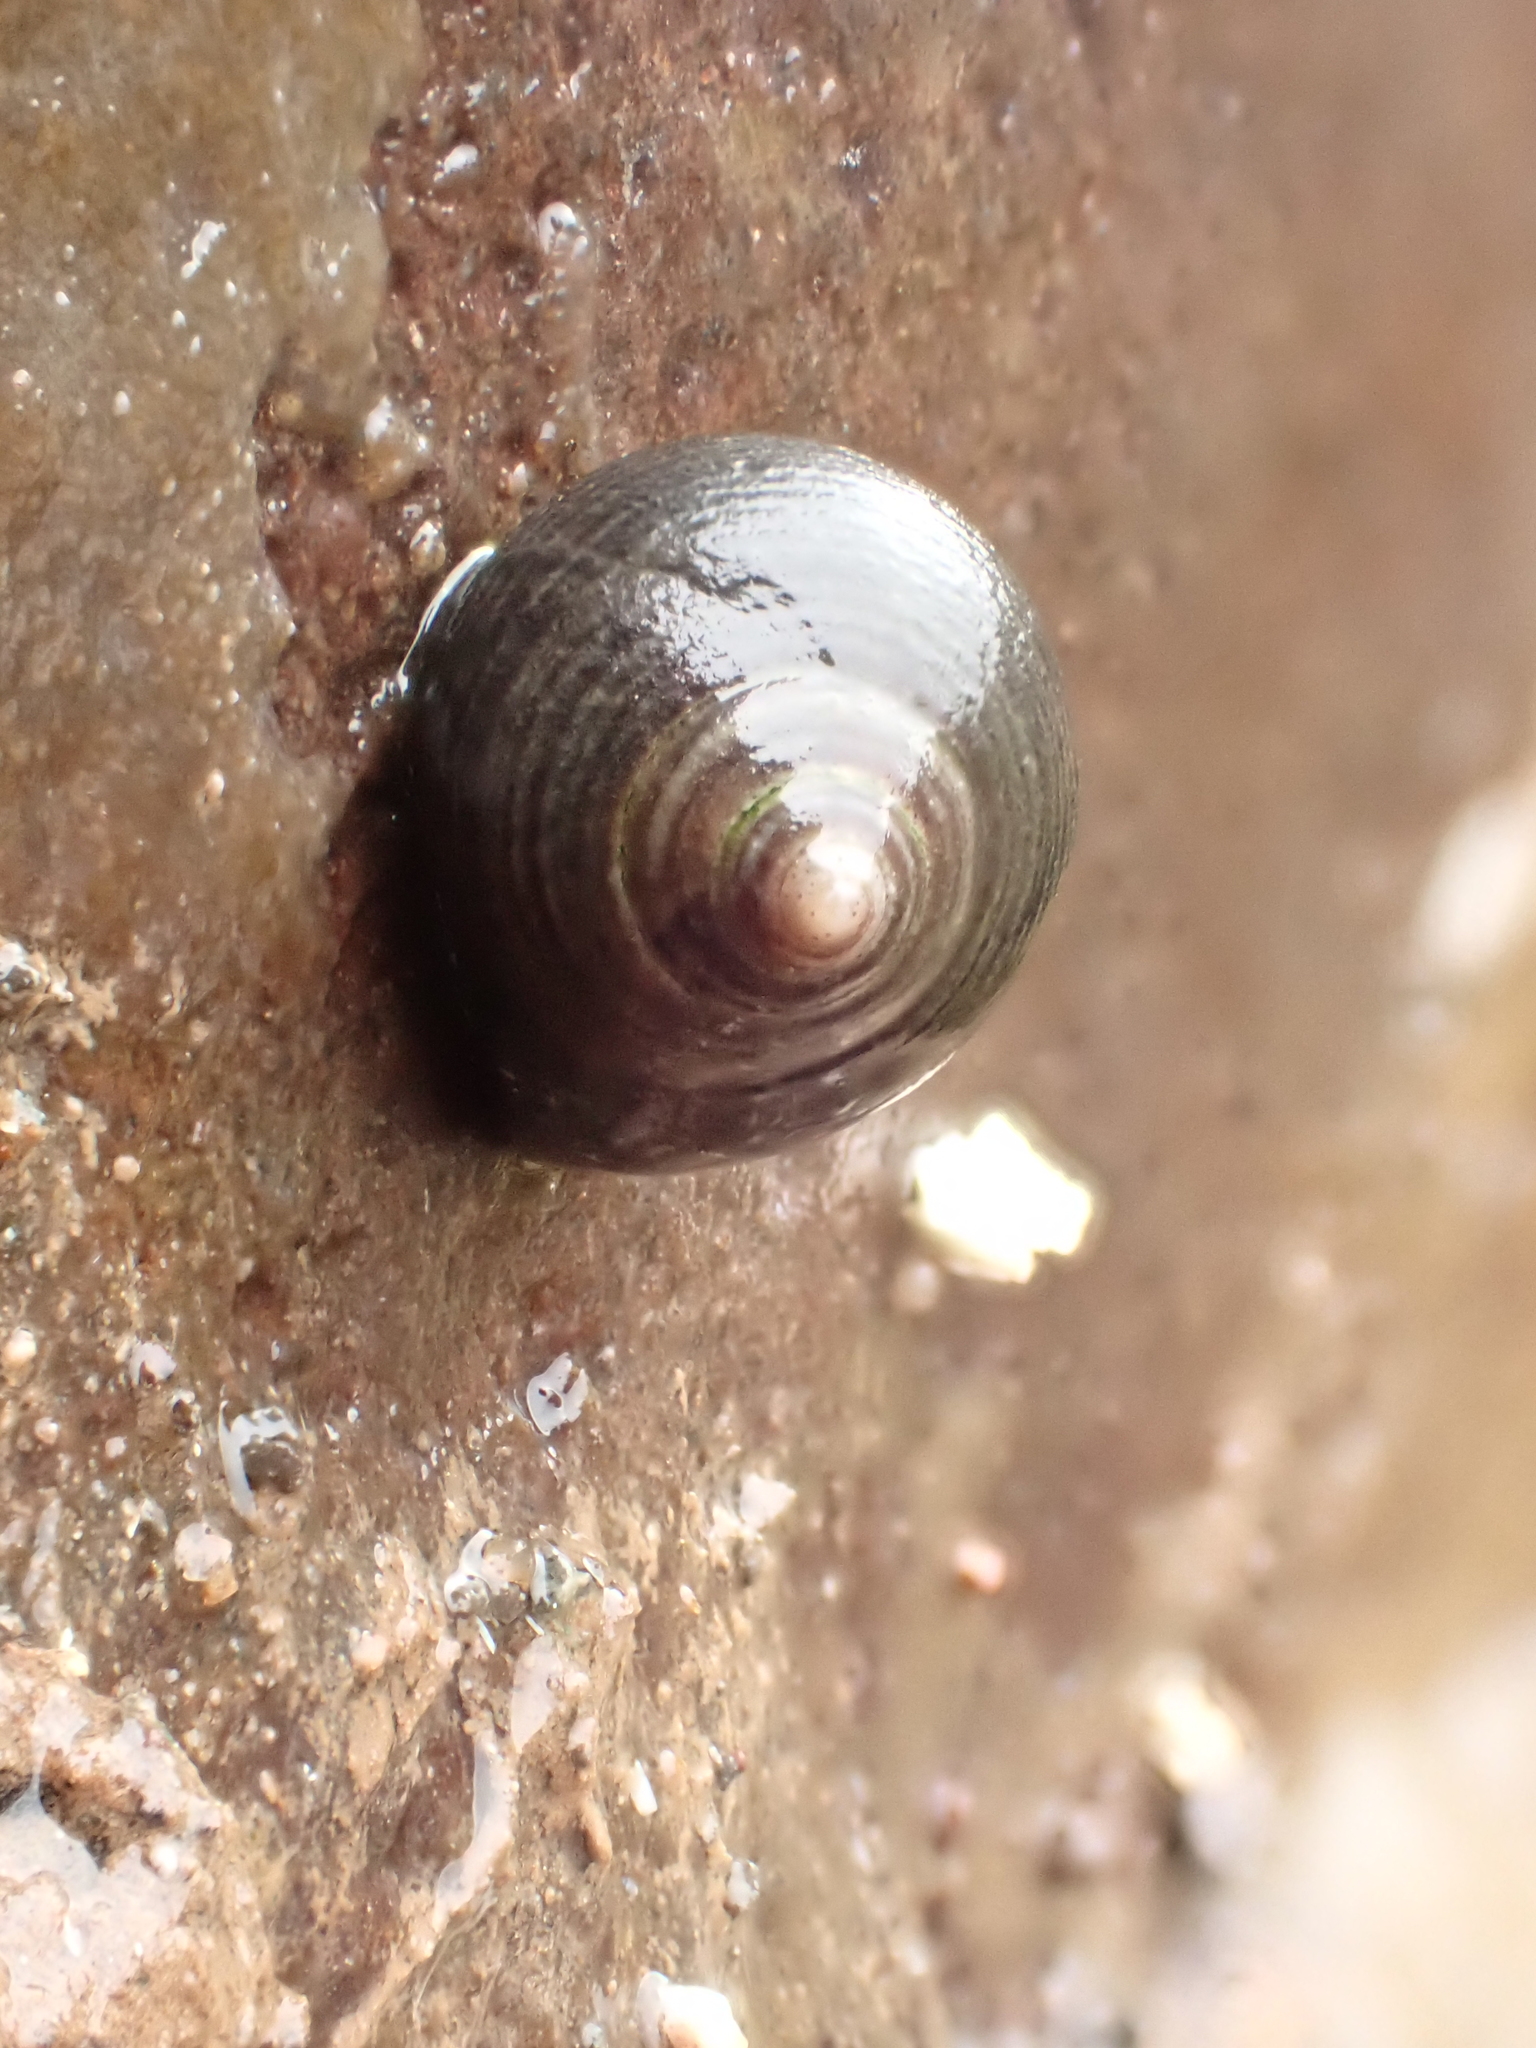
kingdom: Animalia
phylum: Mollusca
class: Gastropoda
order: Littorinimorpha
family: Littorinidae
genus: Littorina
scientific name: Littorina littorea
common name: Common periwinkle
